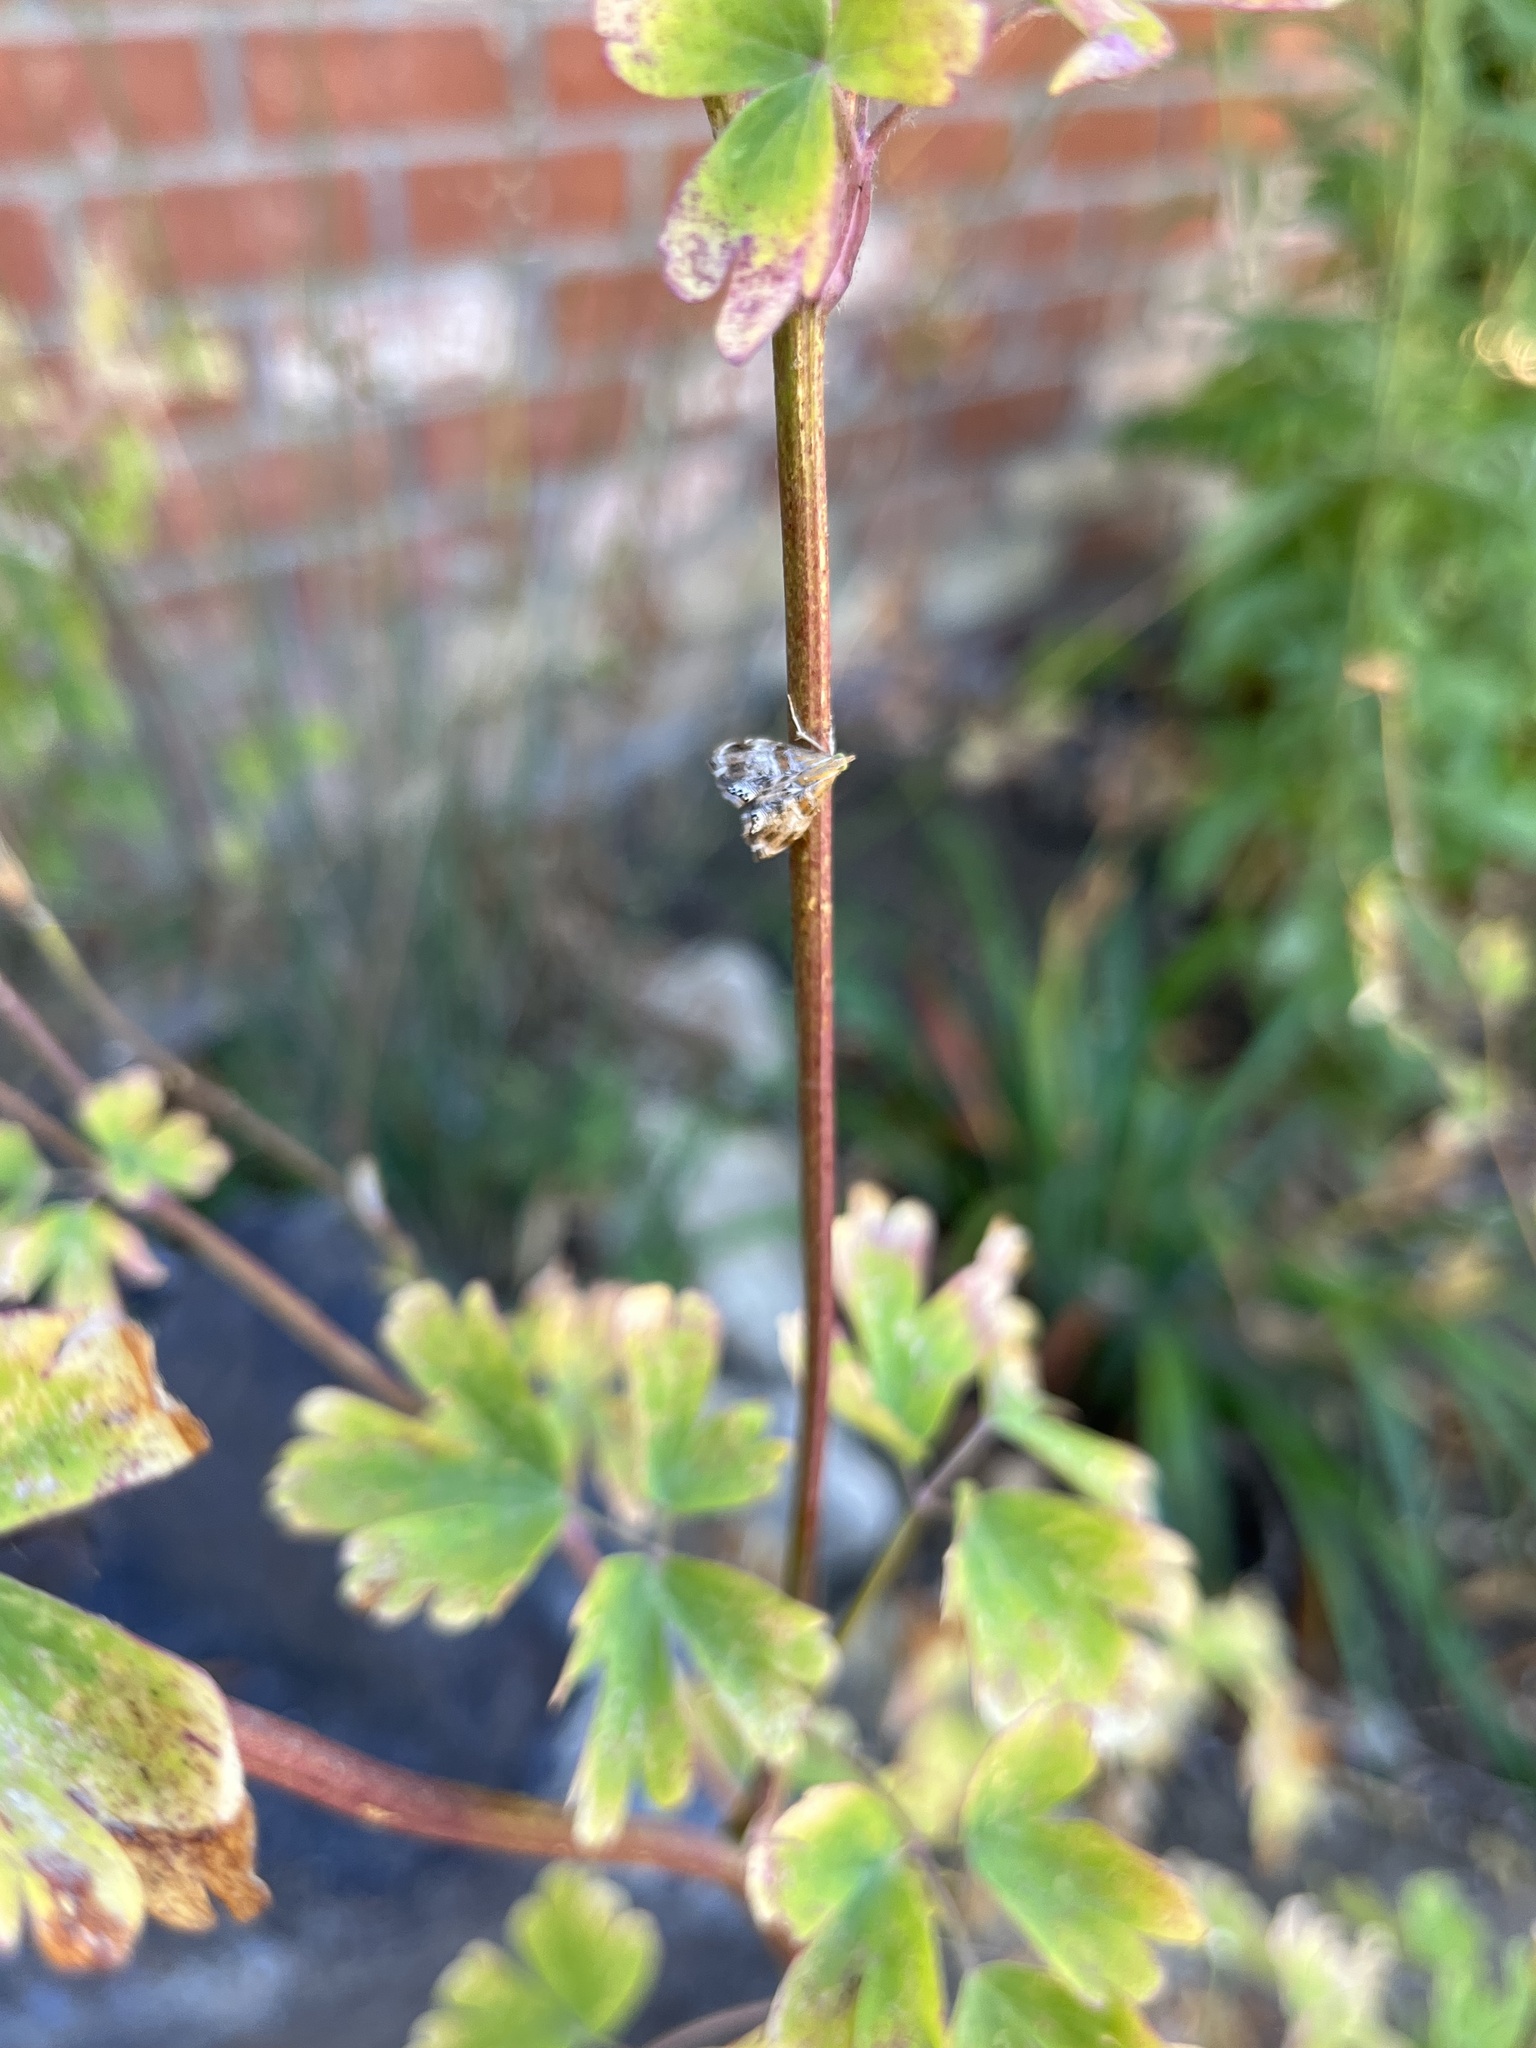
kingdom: Animalia
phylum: Arthropoda
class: Insecta
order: Lepidoptera
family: Crambidae
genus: Dicymolomia
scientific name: Dicymolomia metalliferalis
